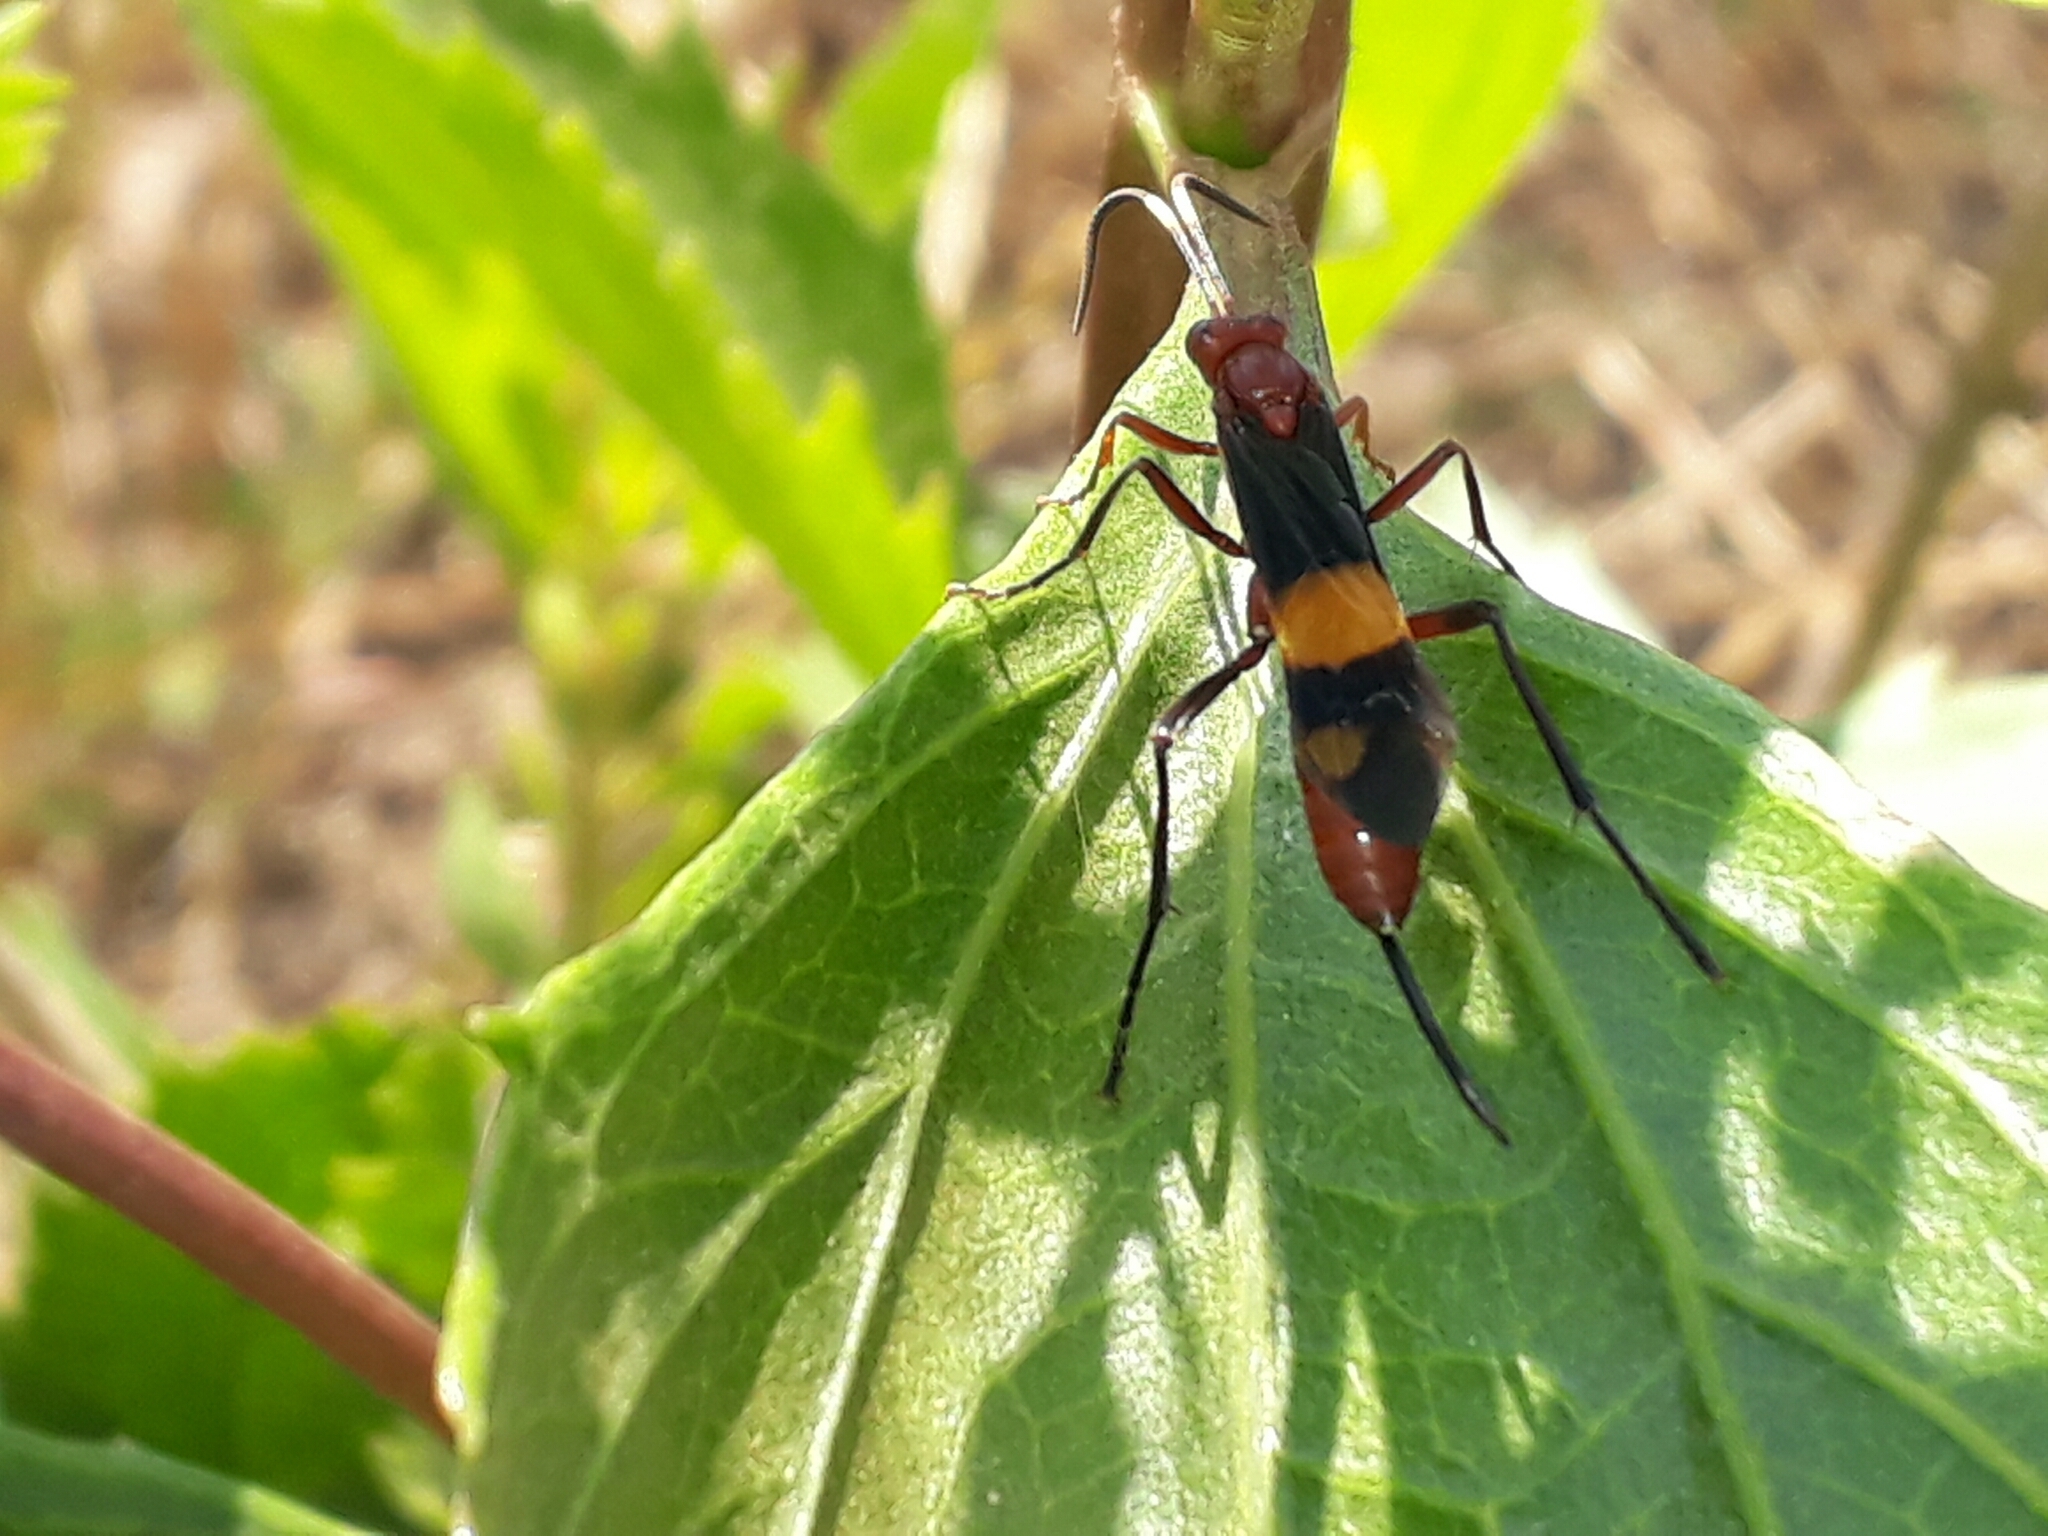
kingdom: Animalia
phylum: Arthropoda
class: Insecta
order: Hymenoptera
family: Ichneumonidae
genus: Compsocryptus
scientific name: Compsocryptus melanostigma
